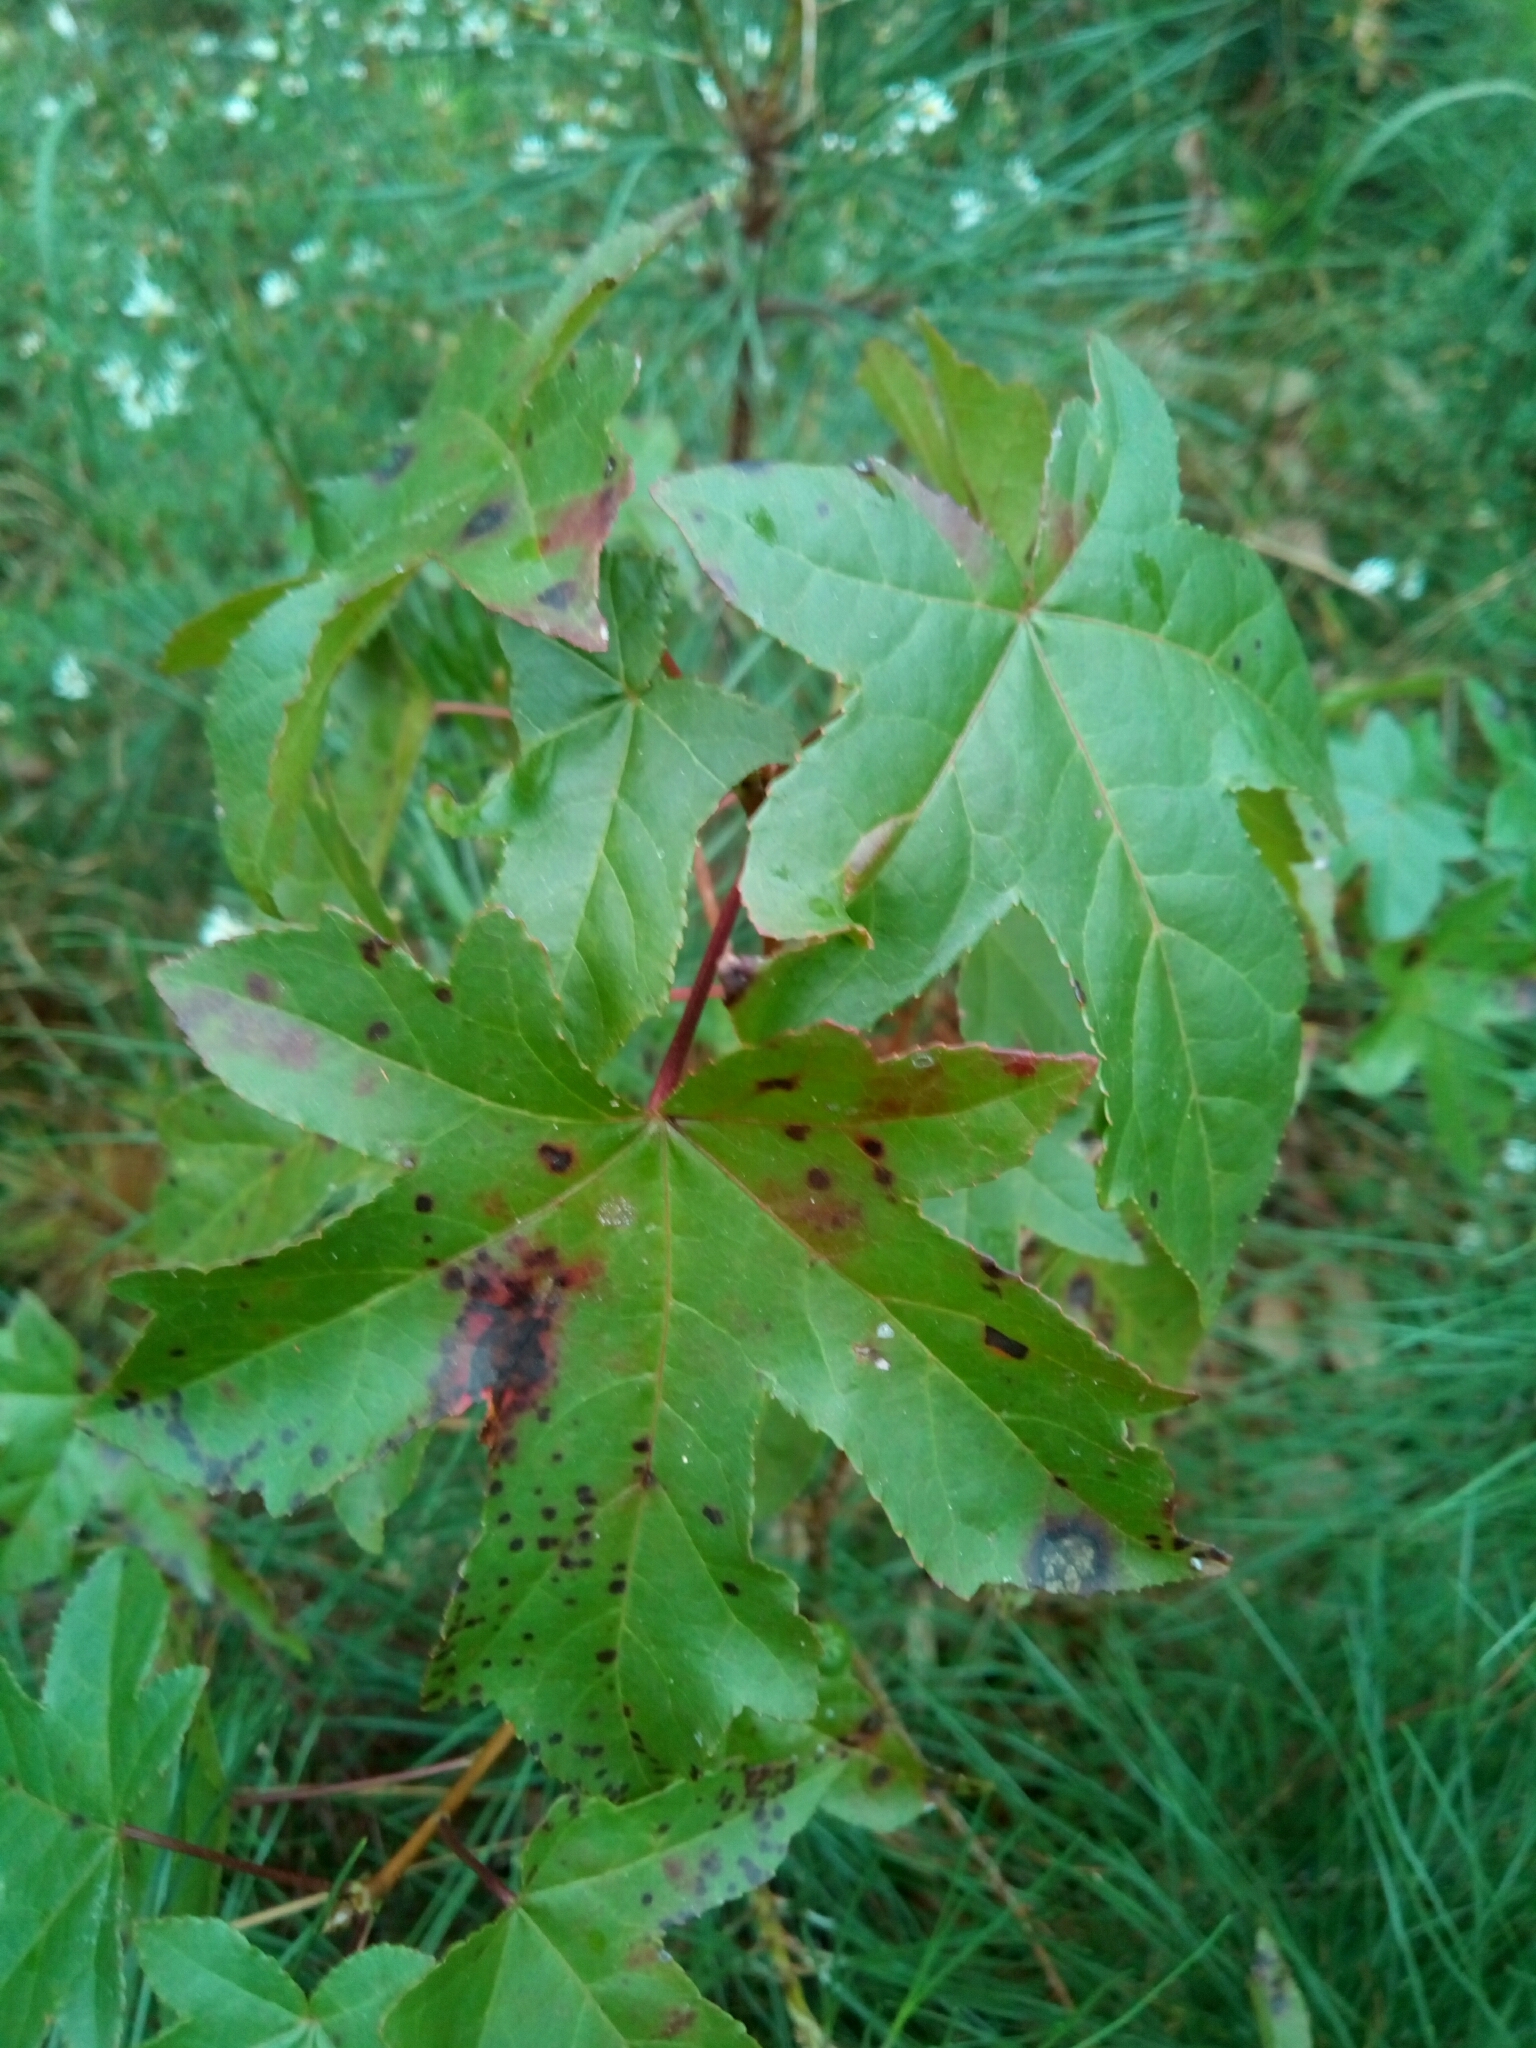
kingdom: Plantae
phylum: Tracheophyta
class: Magnoliopsida
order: Saxifragales
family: Altingiaceae
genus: Liquidambar
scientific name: Liquidambar styraciflua
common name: Sweet gum
